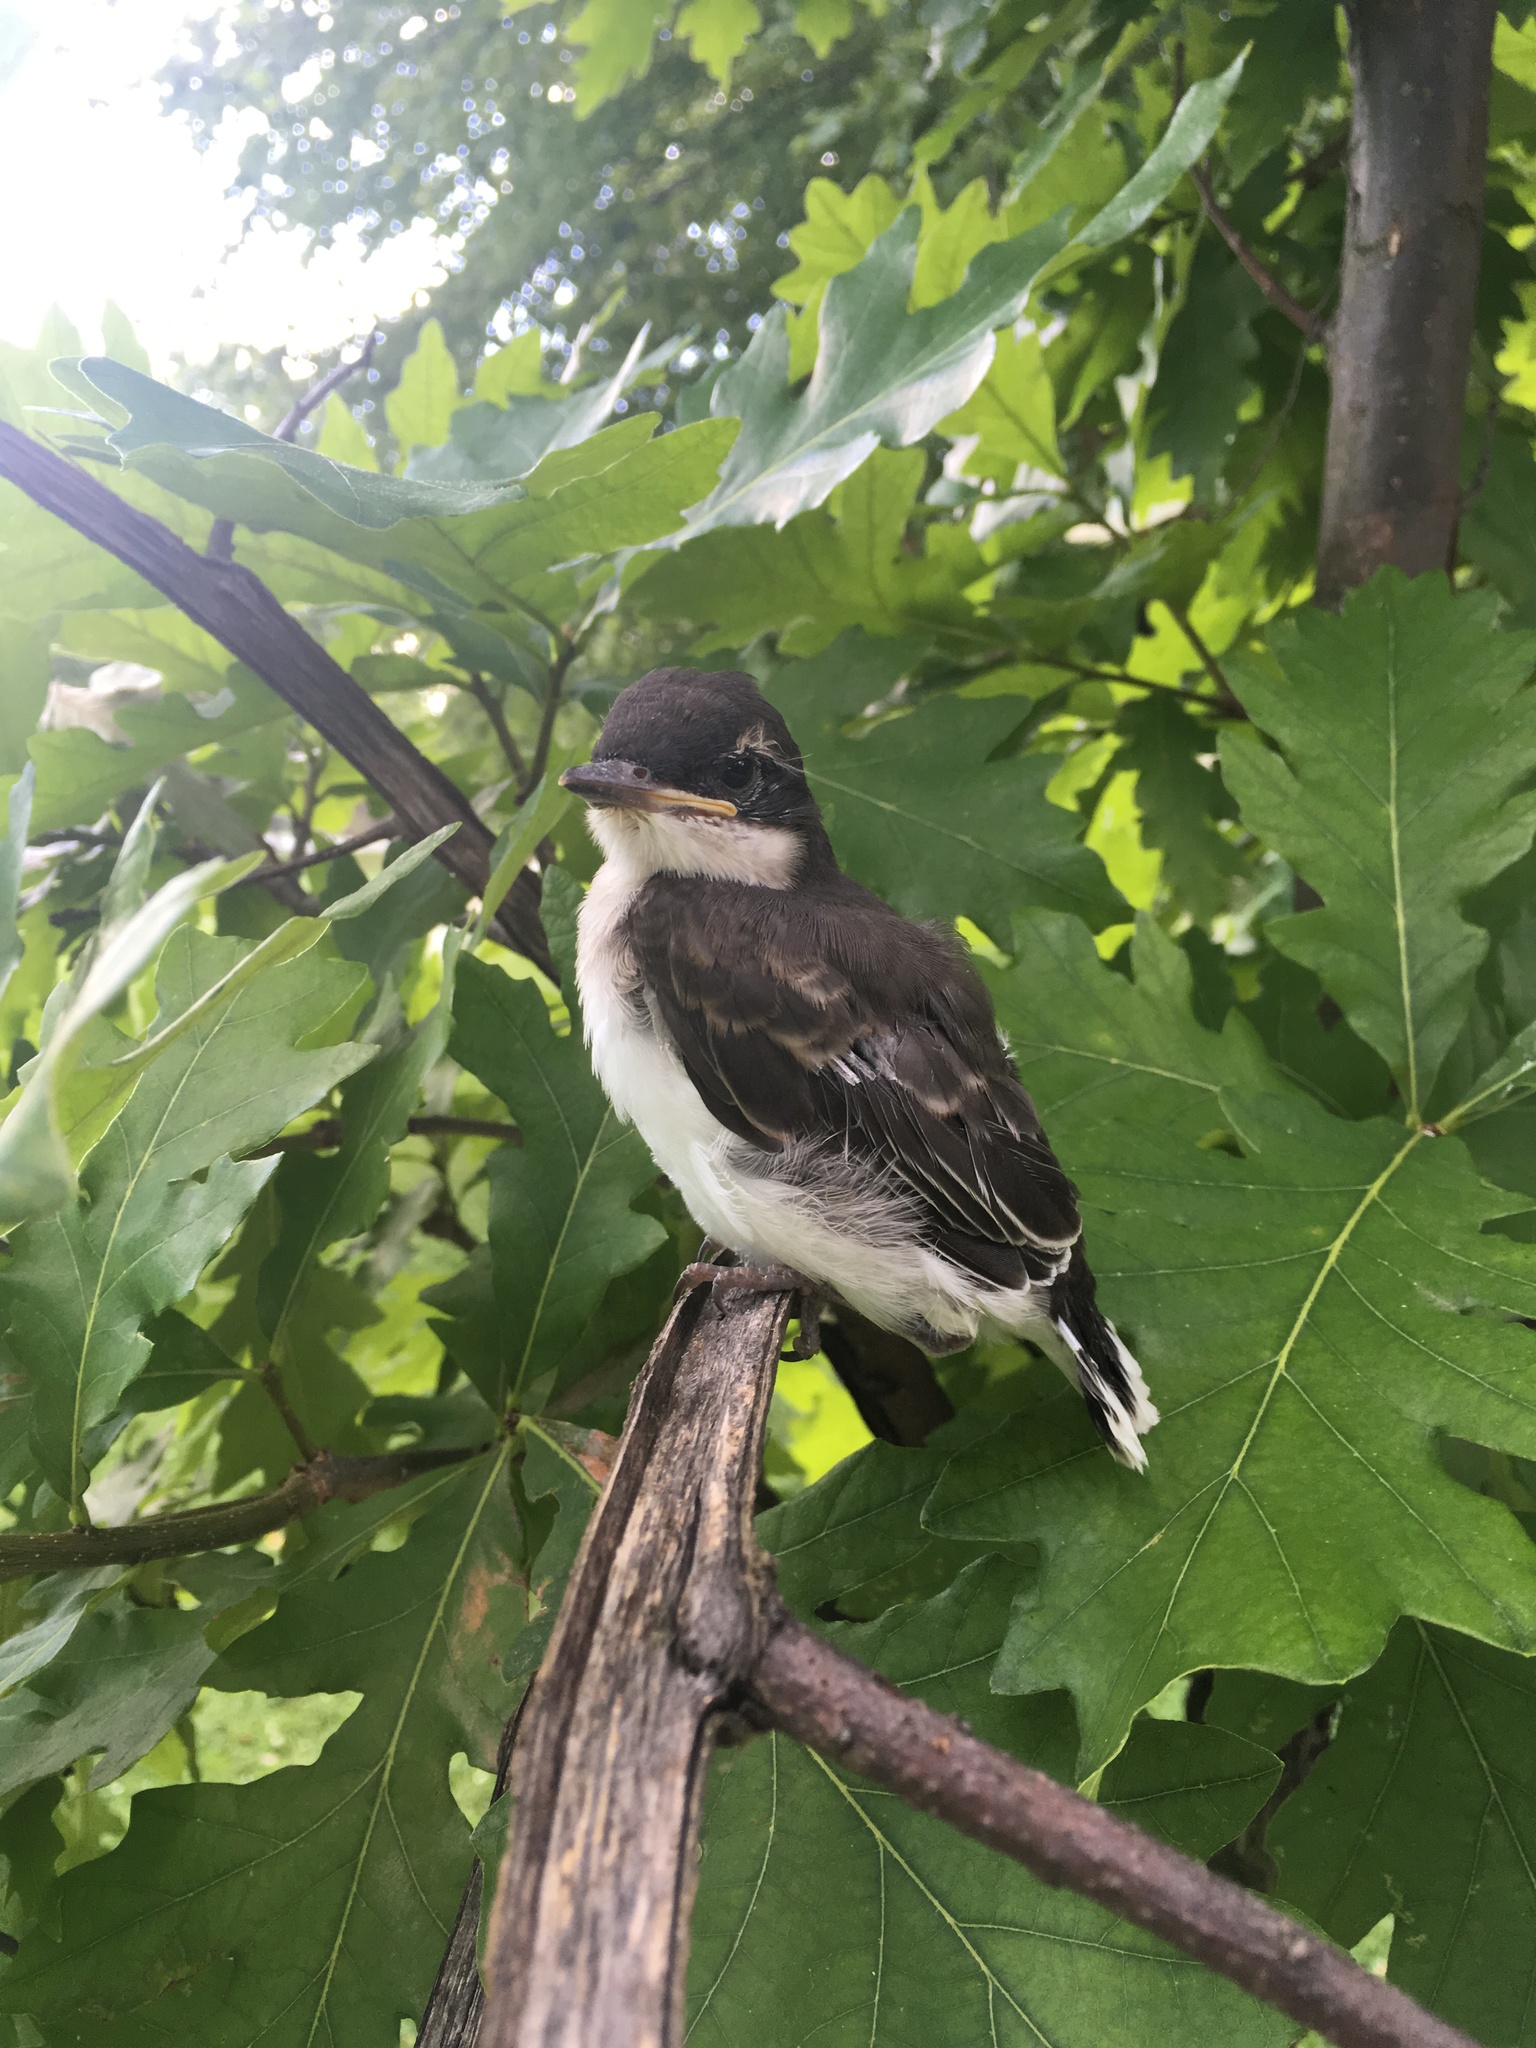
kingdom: Animalia
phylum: Chordata
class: Aves
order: Passeriformes
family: Tyrannidae
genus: Tyrannus
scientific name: Tyrannus tyrannus
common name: Eastern kingbird
